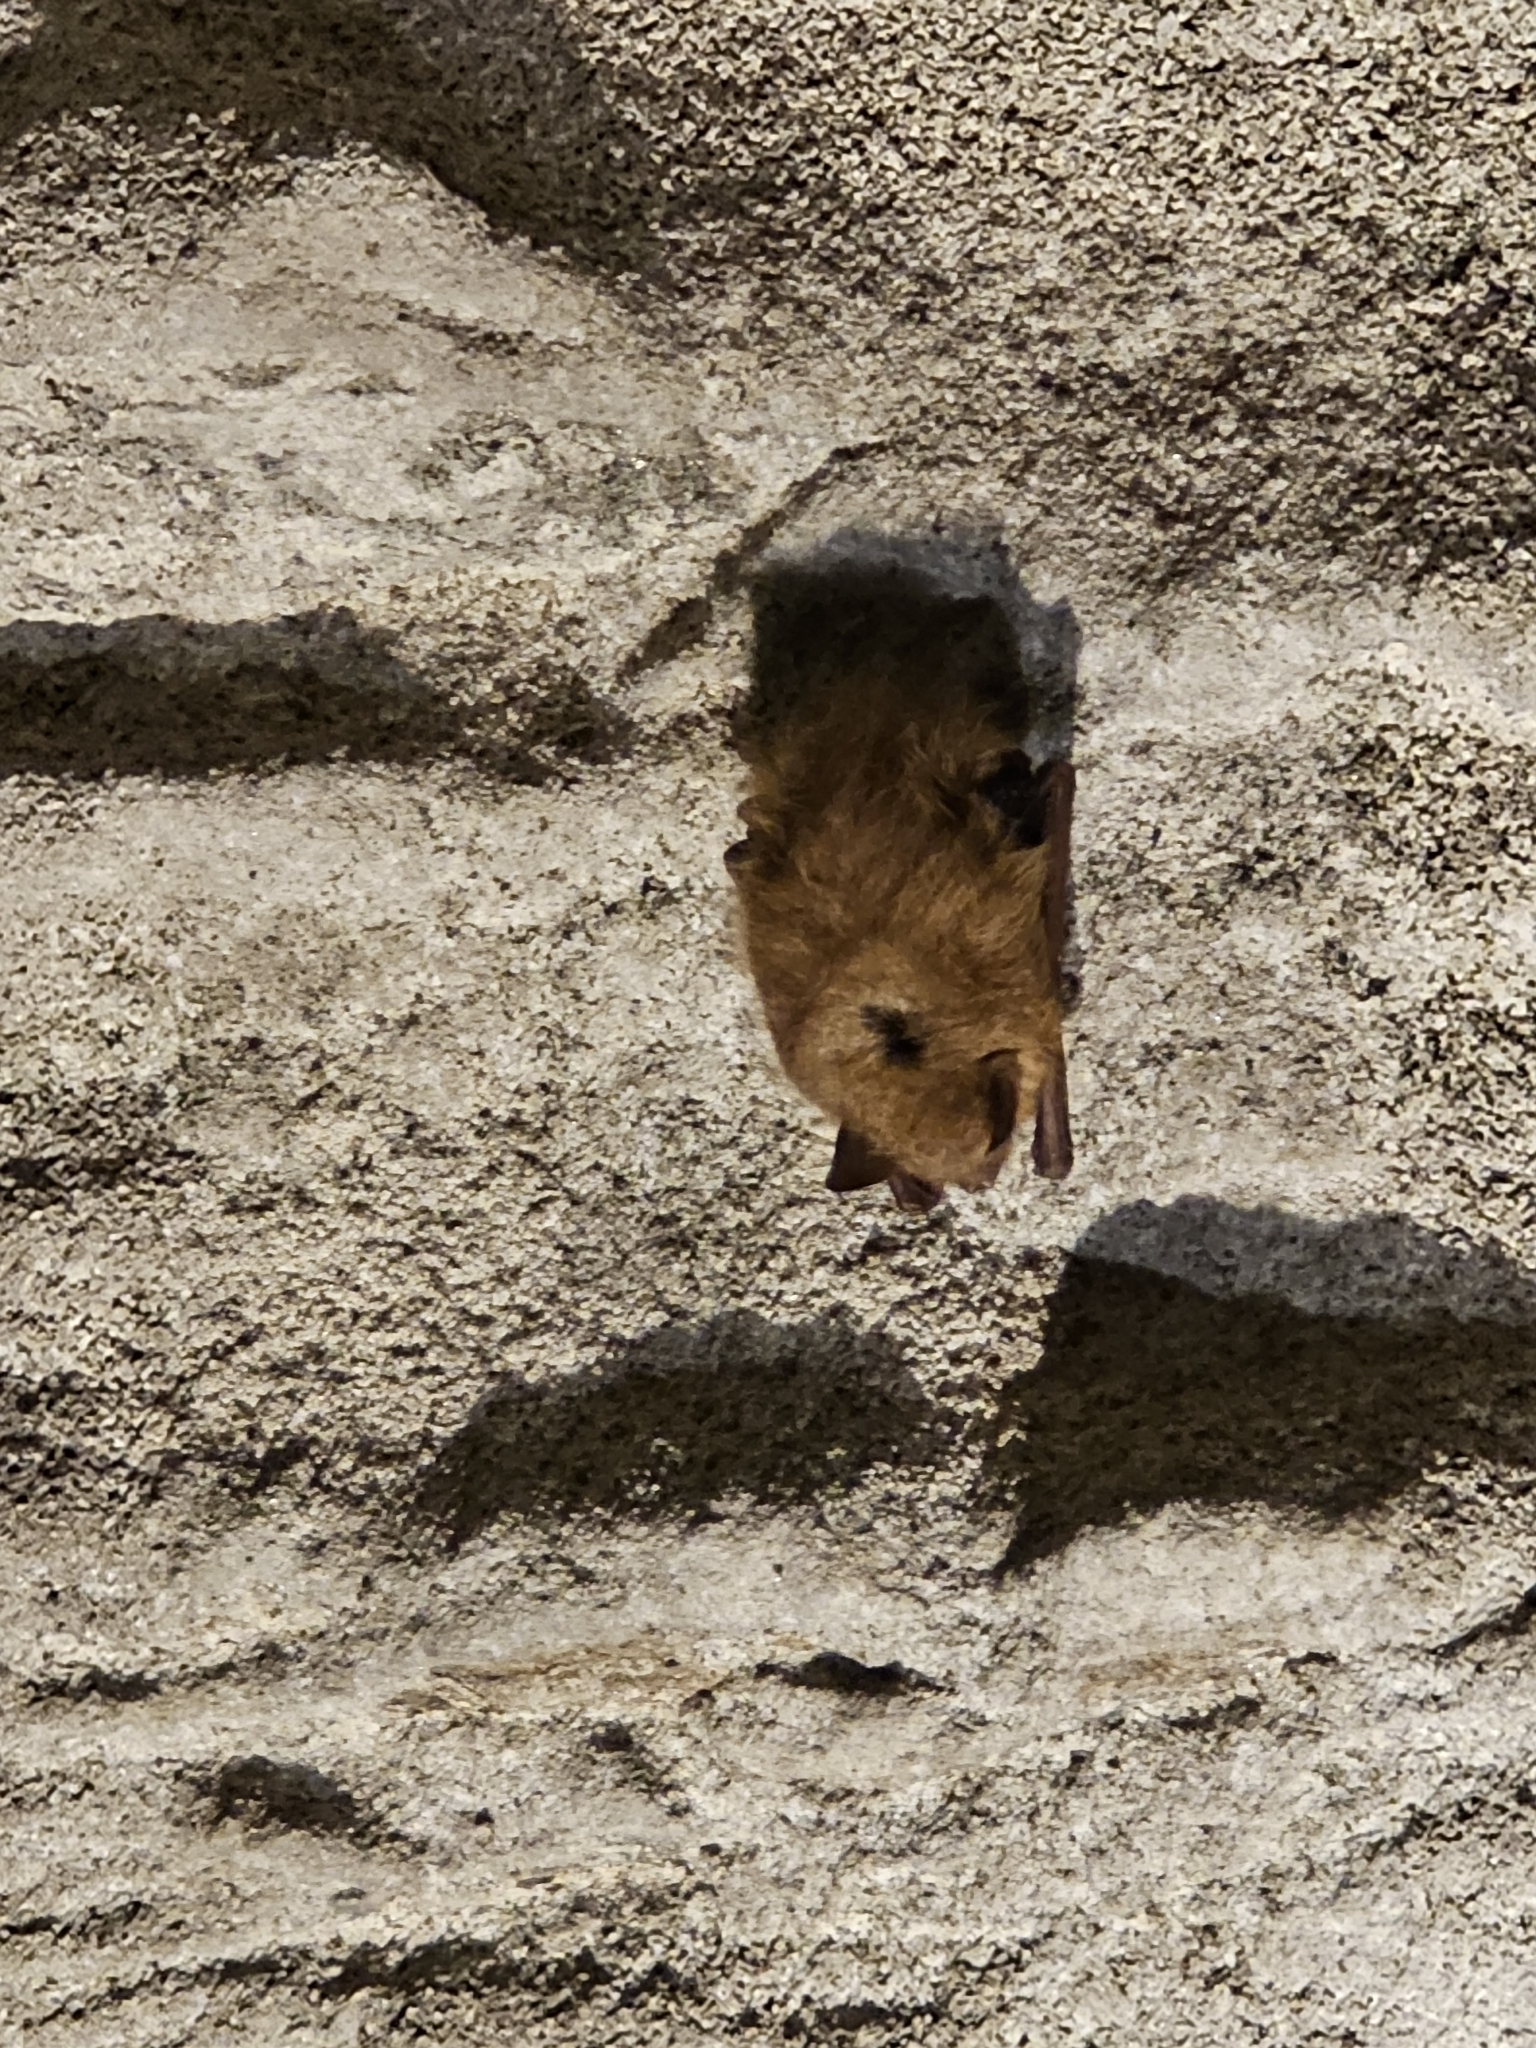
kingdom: Animalia
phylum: Chordata
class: Mammalia
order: Chiroptera
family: Vespertilionidae
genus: Perimyotis
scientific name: Perimyotis subflavus
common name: Eastern pipistrelle
